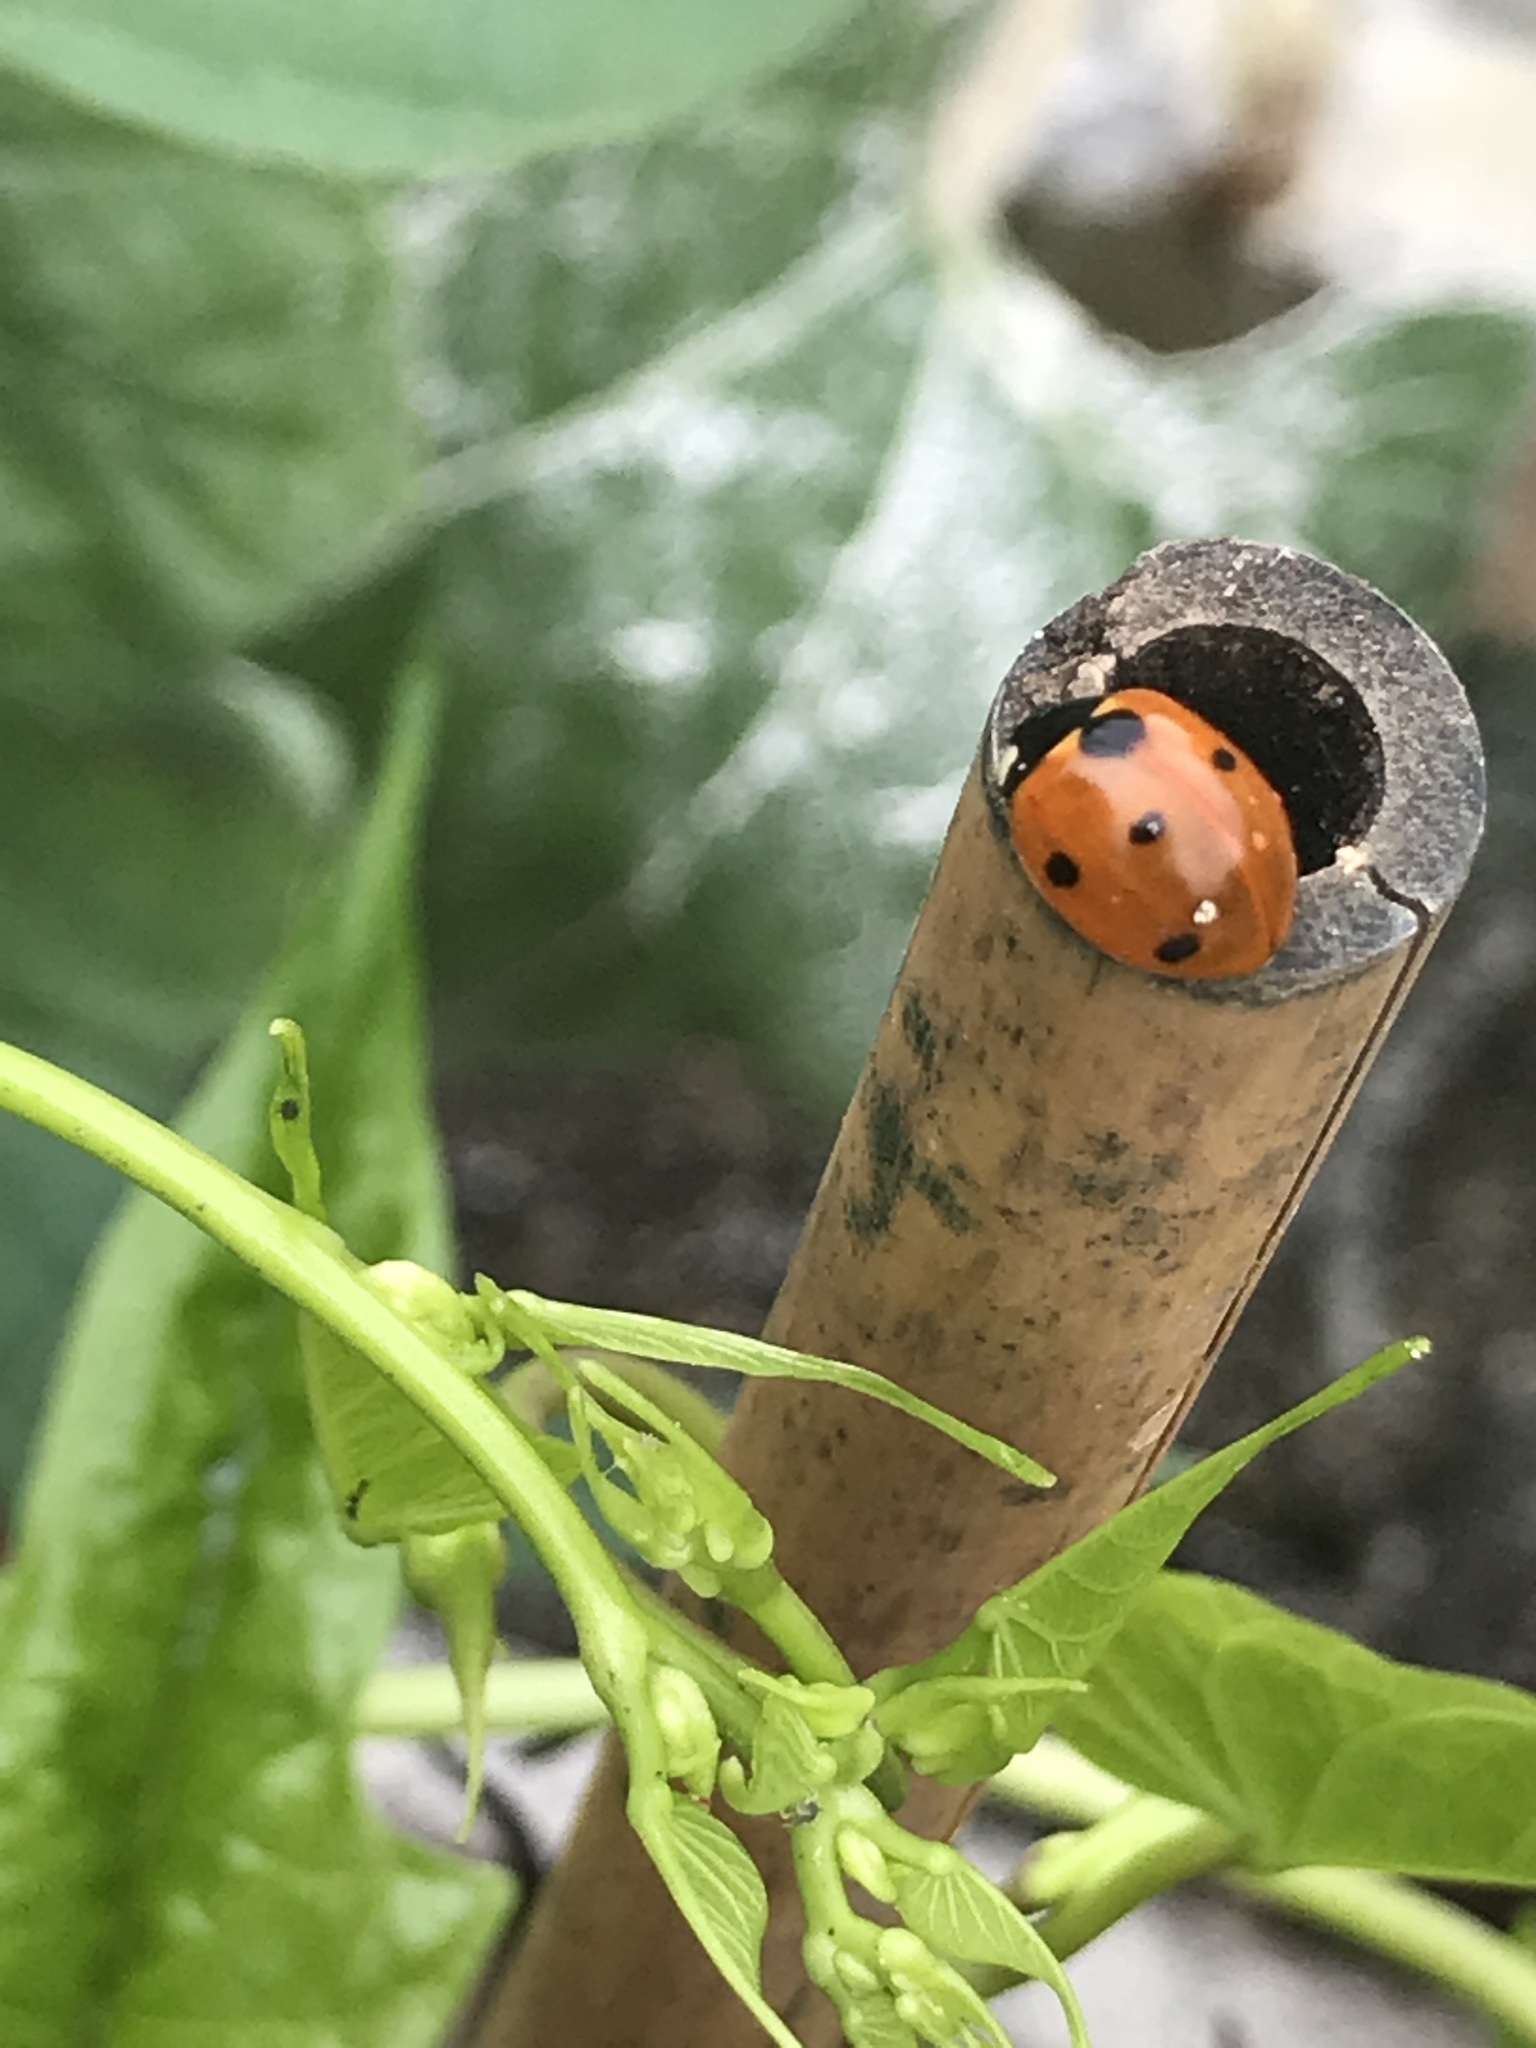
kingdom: Animalia
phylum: Arthropoda
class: Insecta
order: Coleoptera
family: Coccinellidae
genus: Coccinella
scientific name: Coccinella septempunctata
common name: Sevenspotted lady beetle
